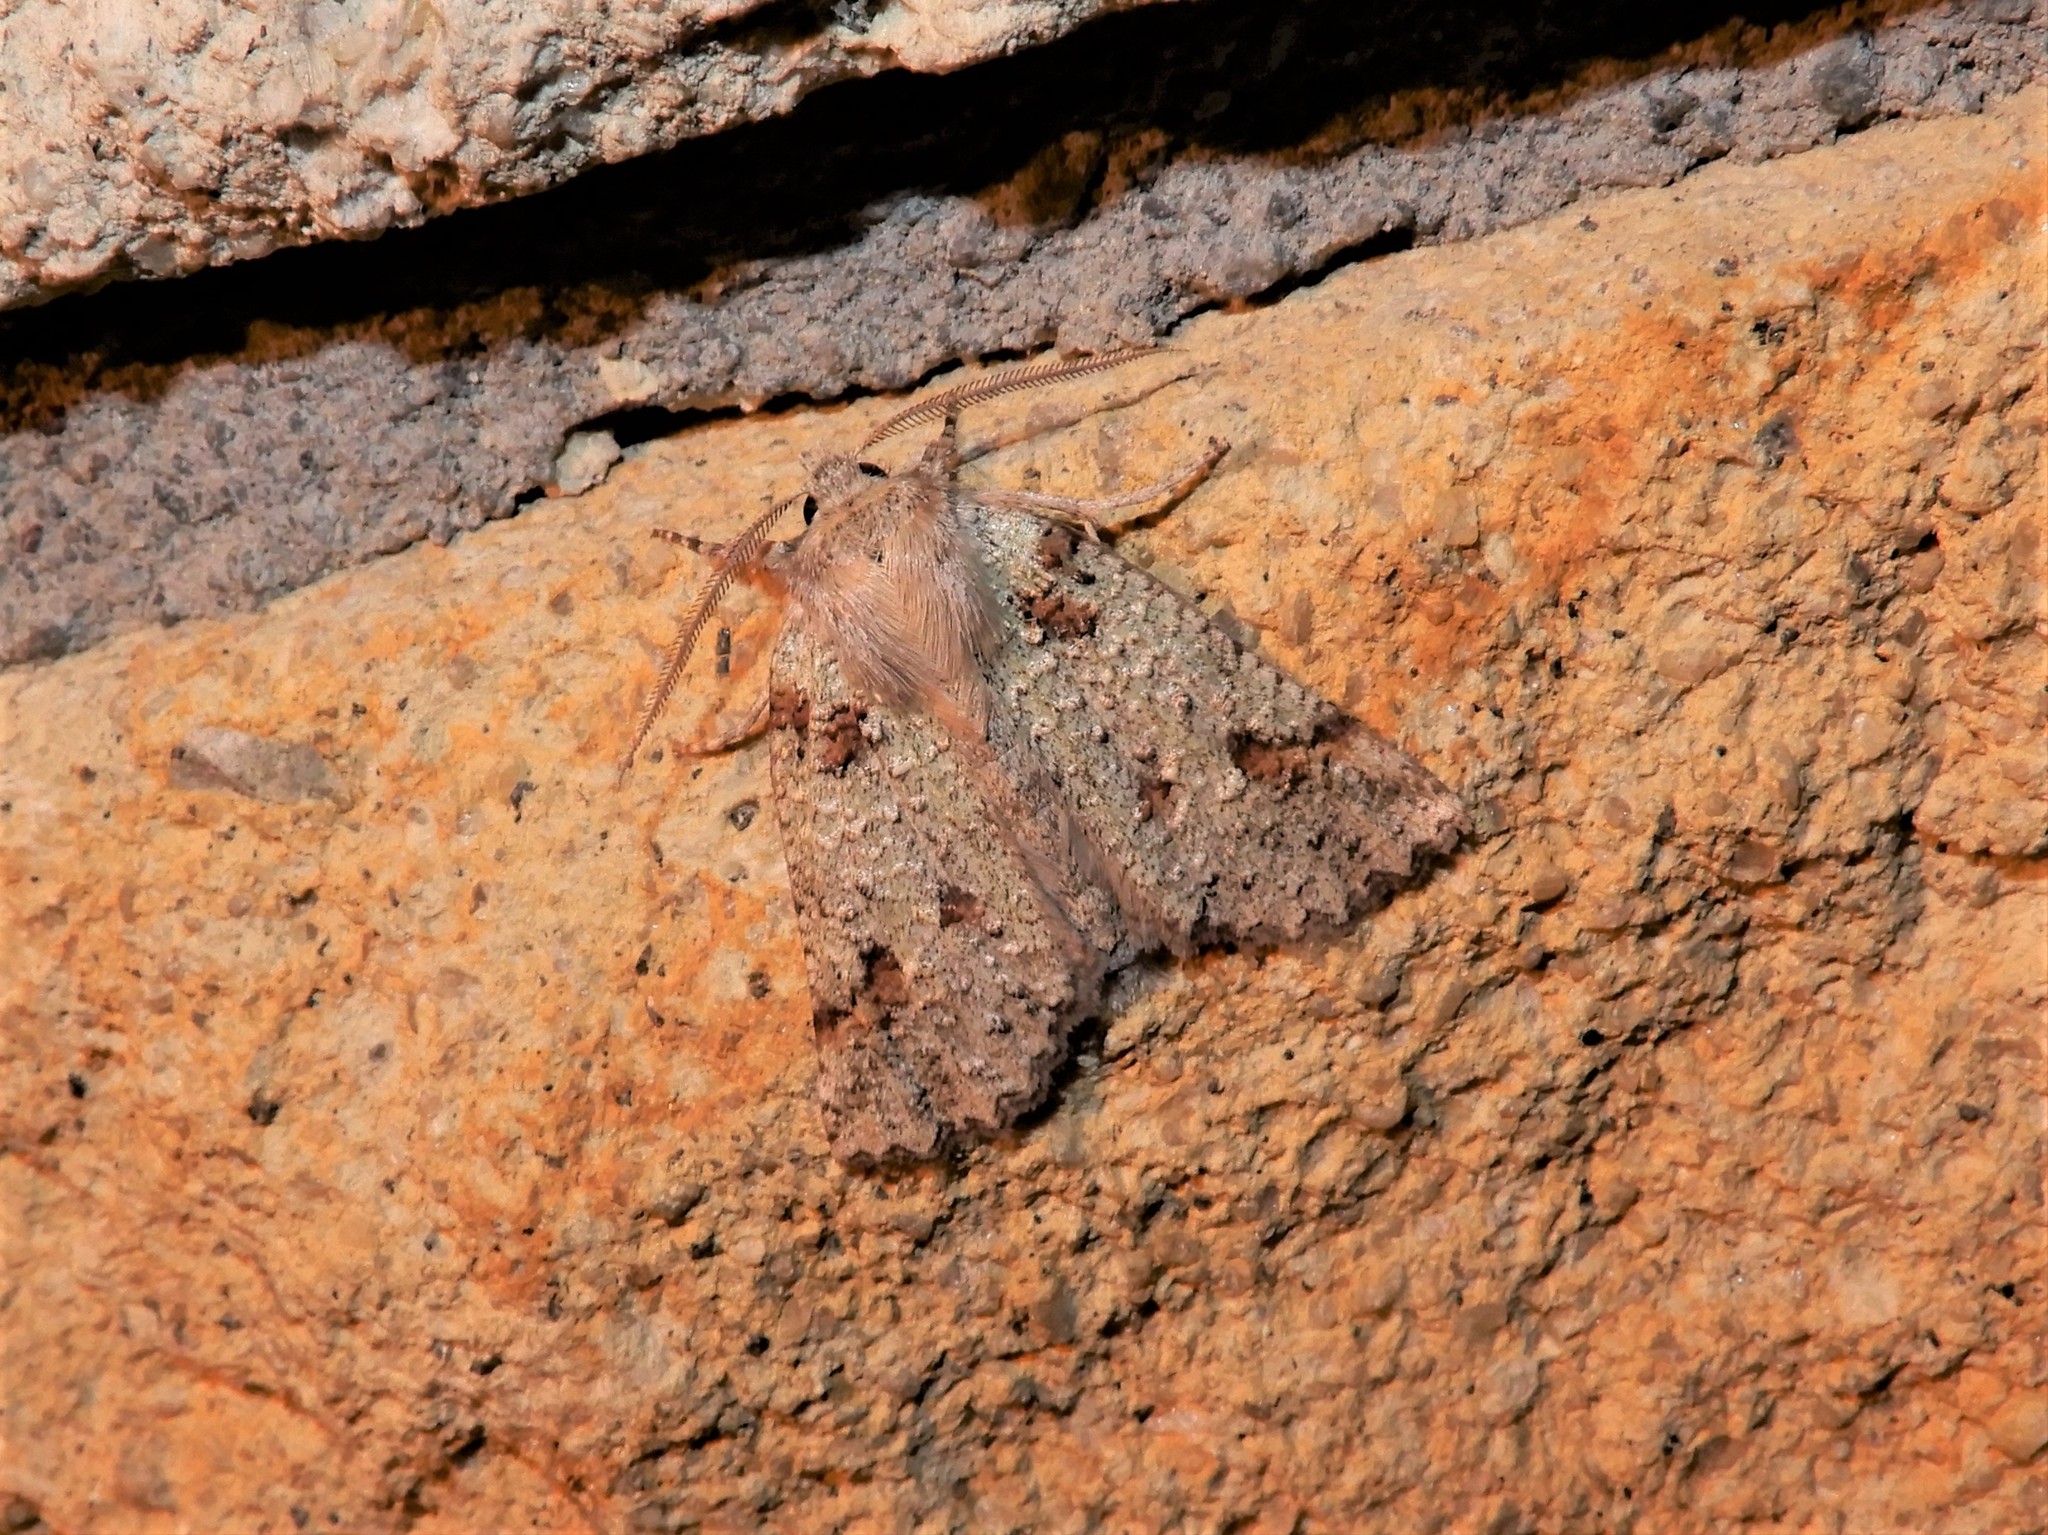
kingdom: Animalia
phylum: Arthropoda
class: Insecta
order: Lepidoptera
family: Geometridae
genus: Declana
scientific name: Declana floccosa
